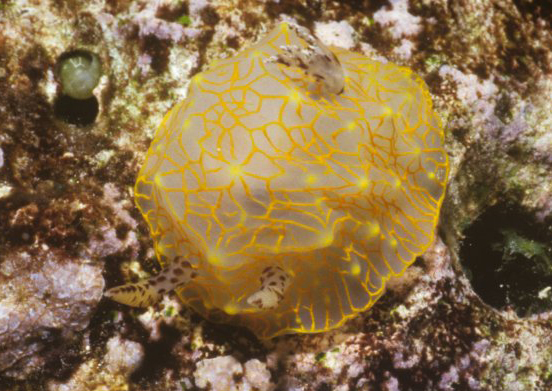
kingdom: Animalia
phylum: Mollusca
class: Gastropoda
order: Nudibranchia
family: Discodorididae
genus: Halgerda
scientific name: Halgerda terramtuentis
